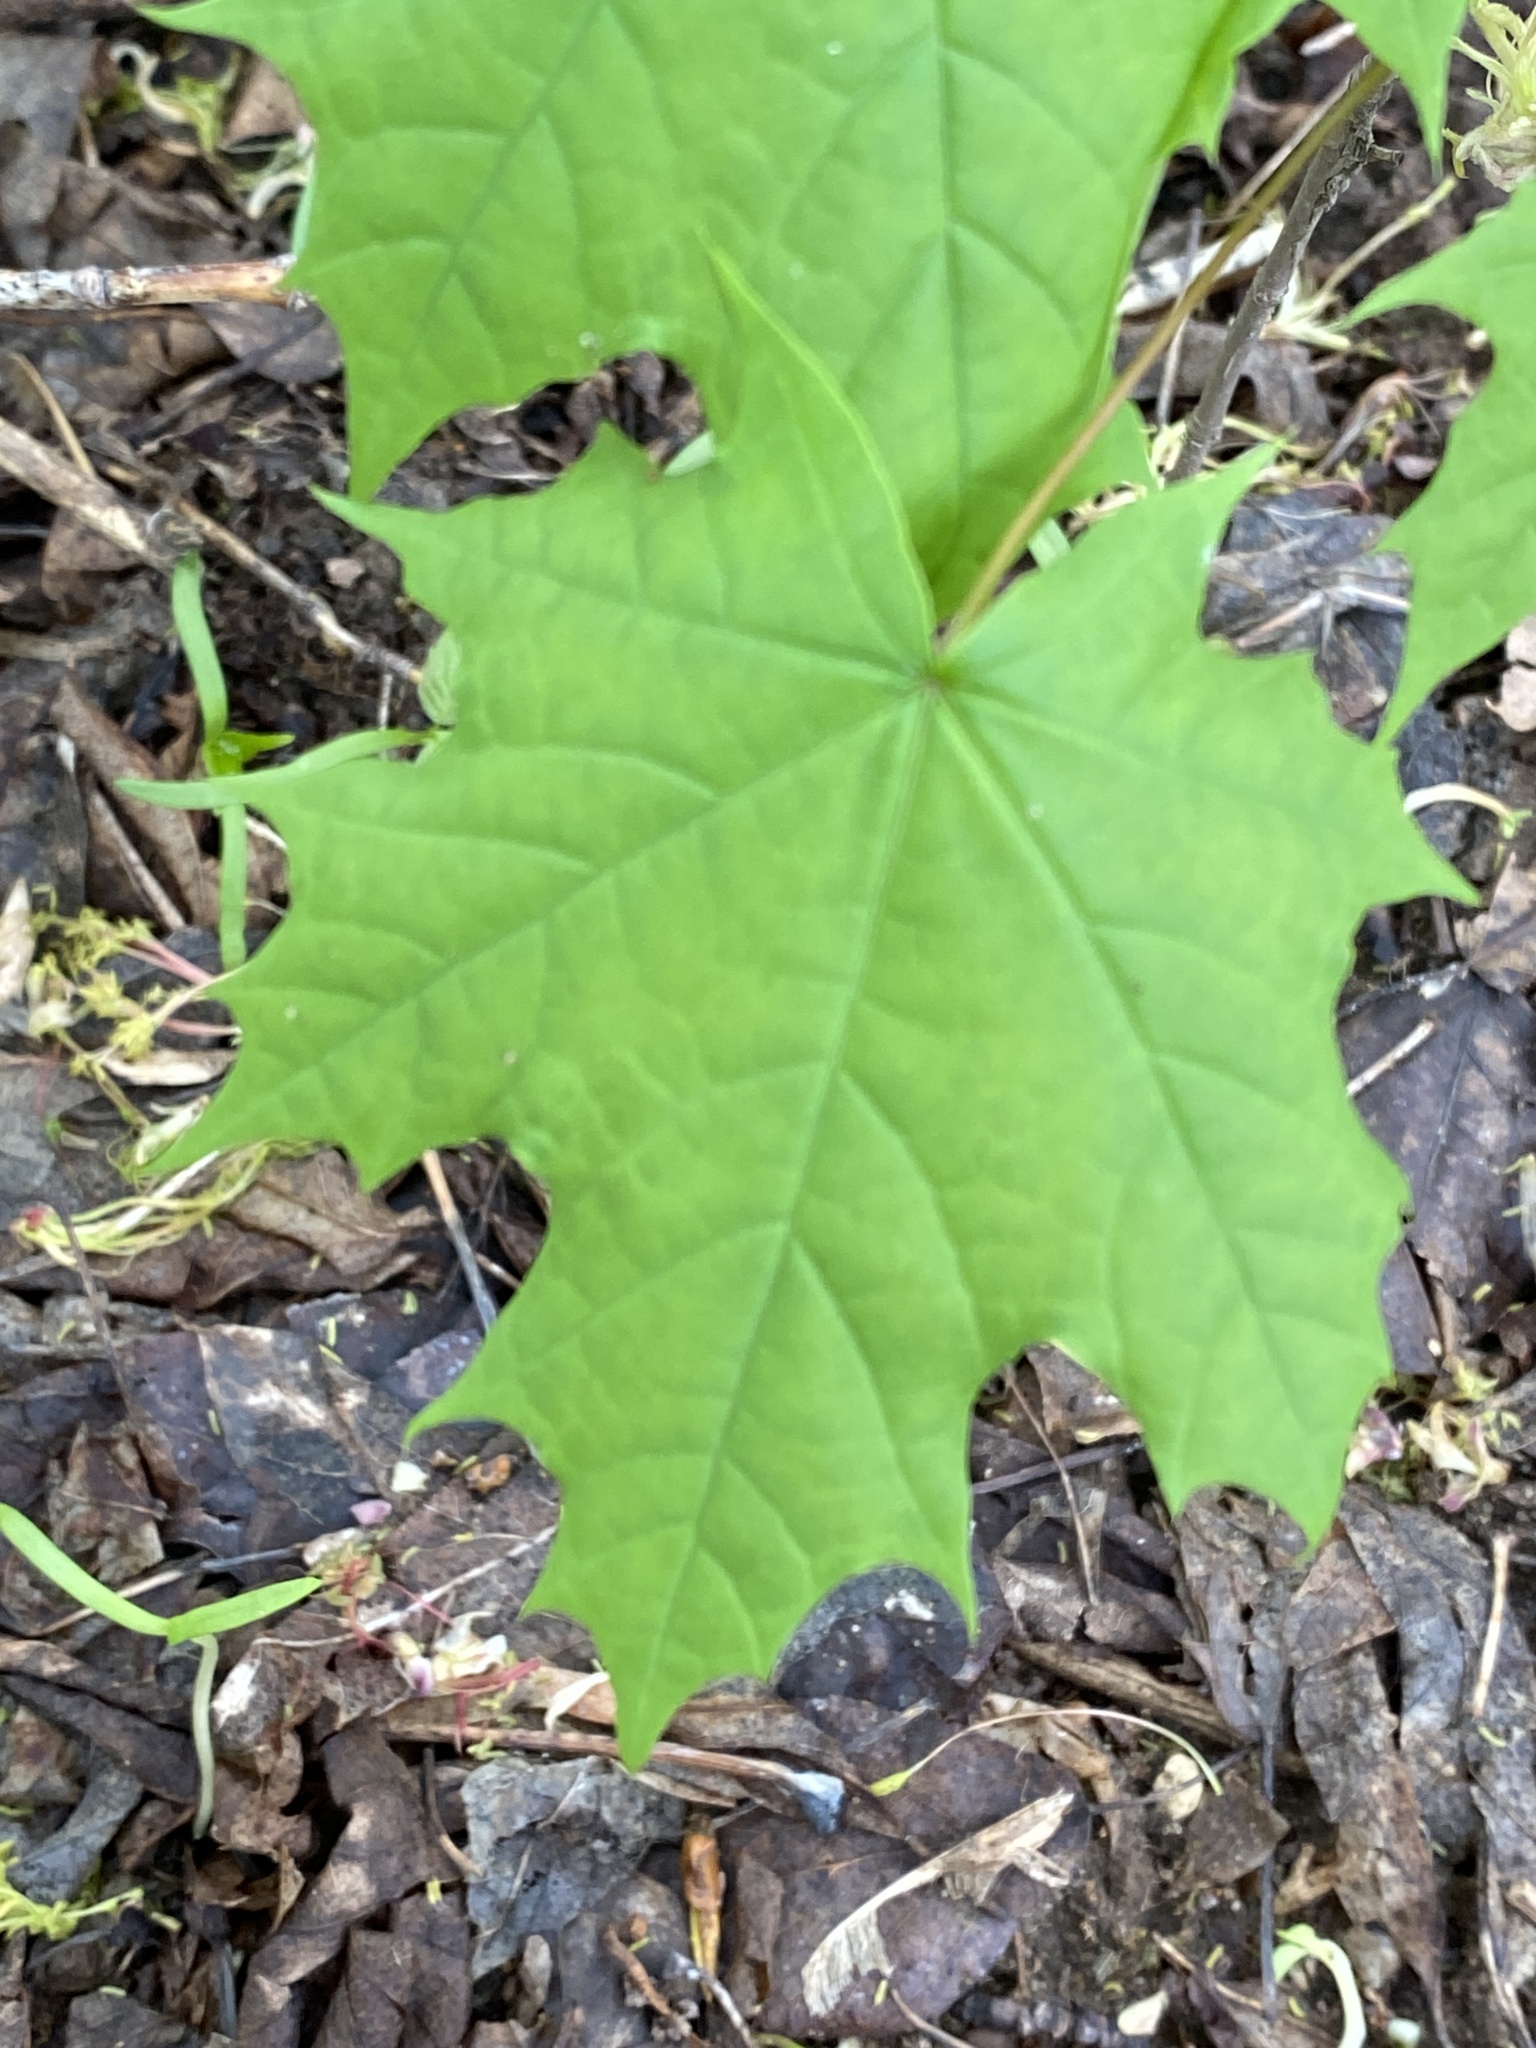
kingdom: Plantae
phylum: Tracheophyta
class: Magnoliopsida
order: Sapindales
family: Sapindaceae
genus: Acer
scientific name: Acer platanoides
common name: Norway maple
